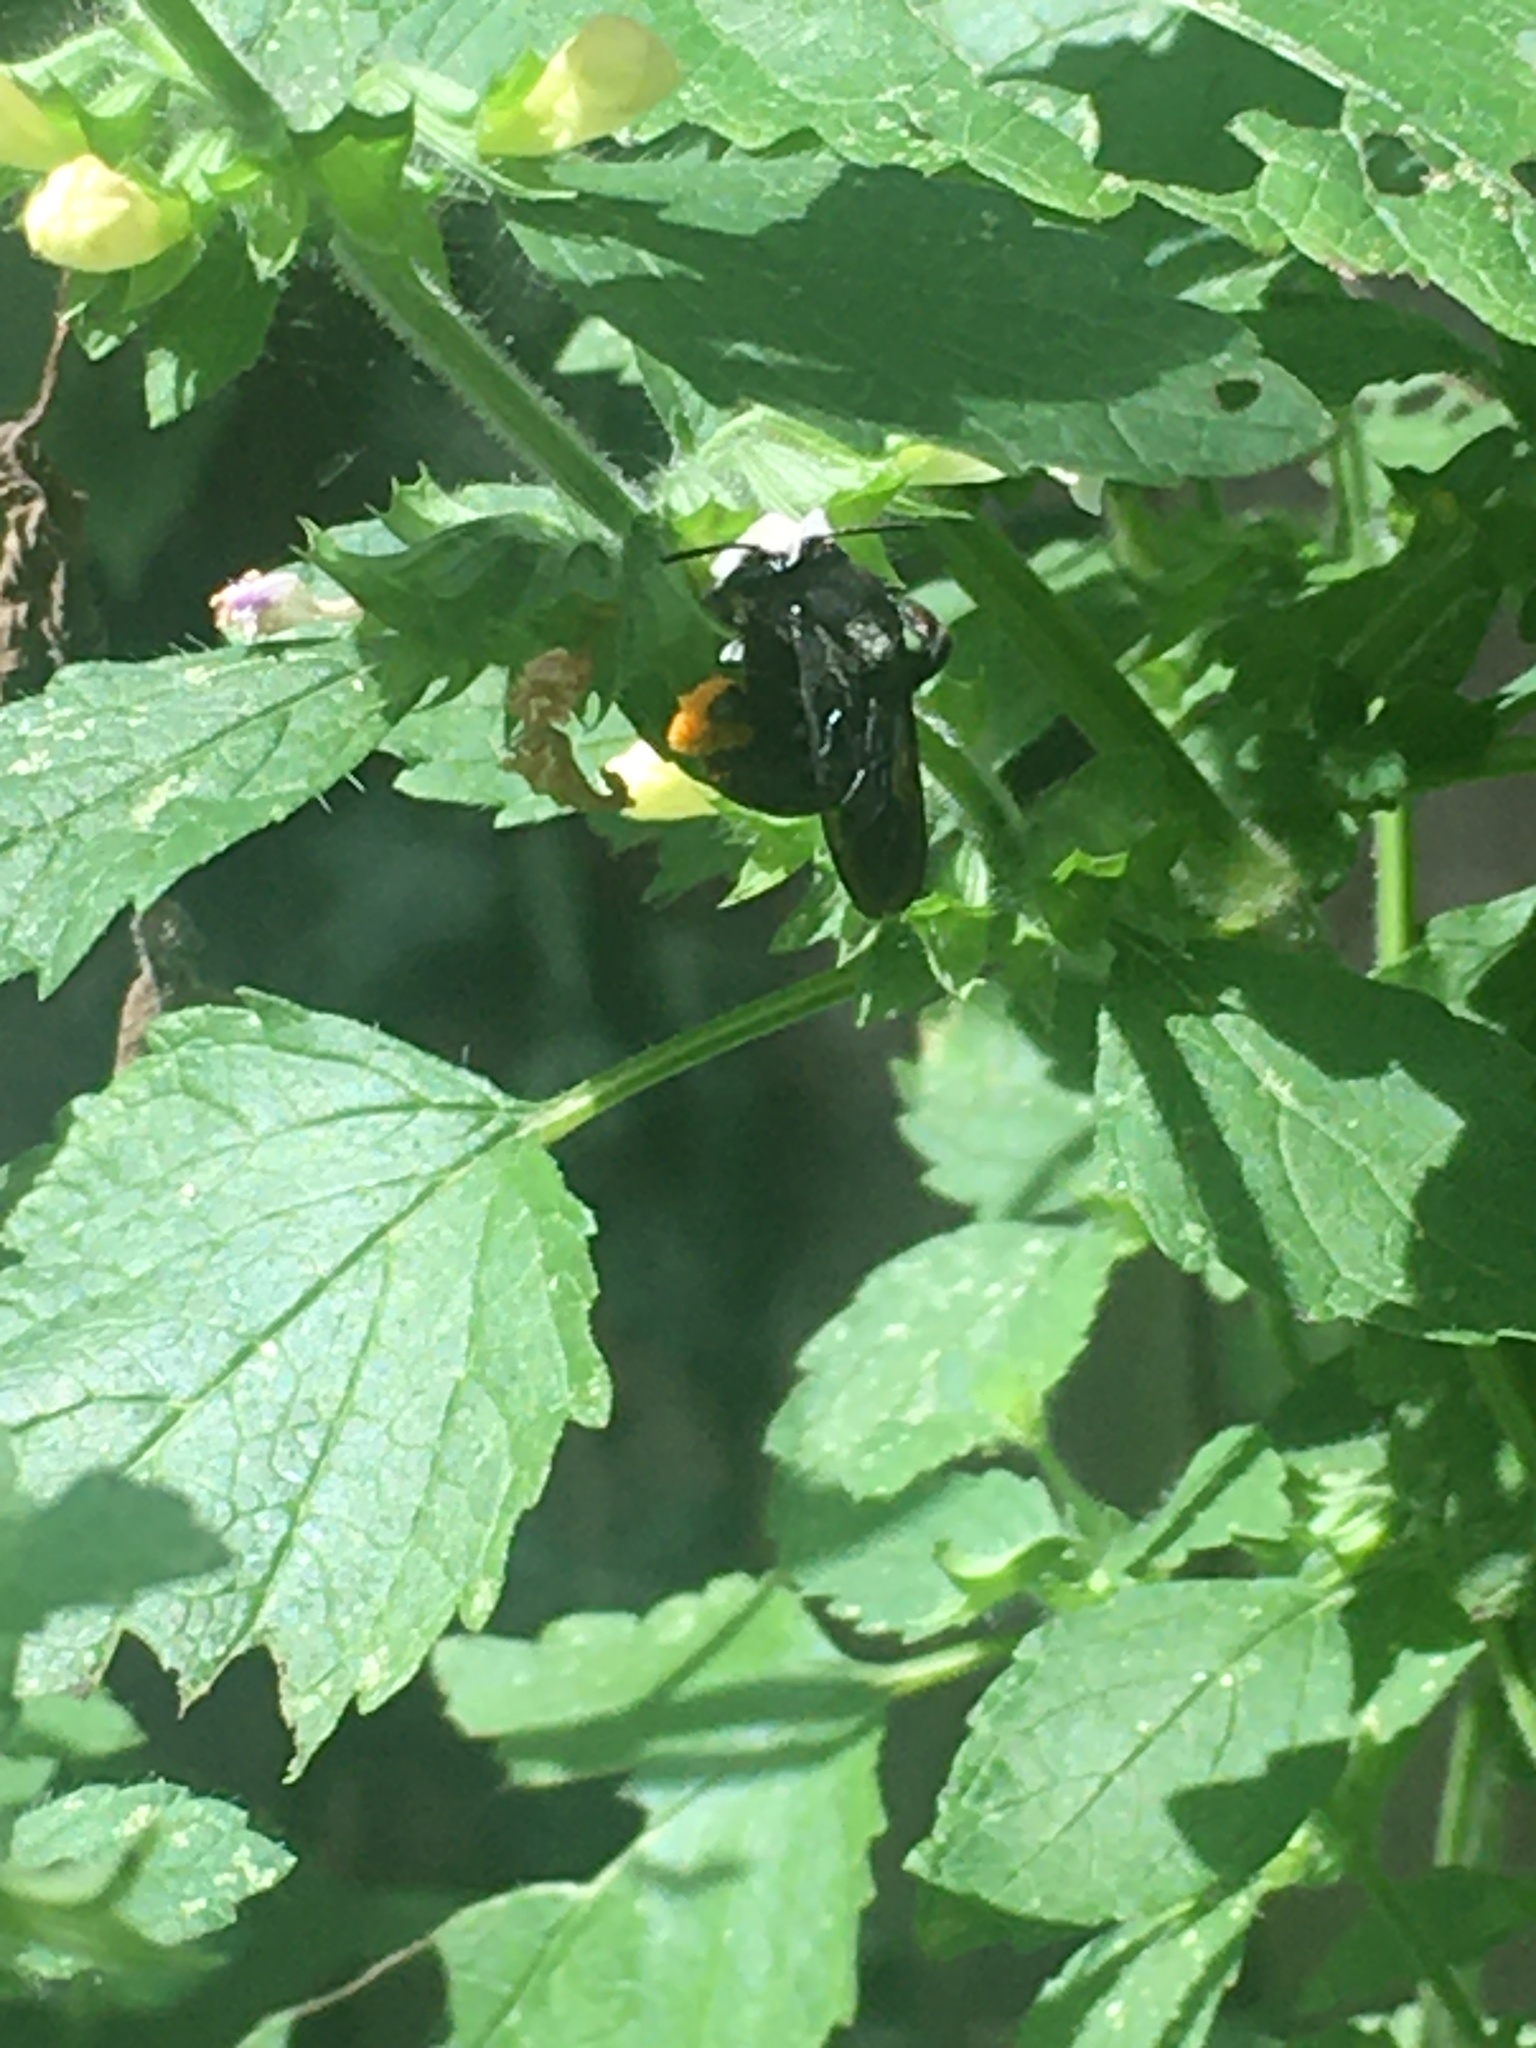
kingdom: Animalia
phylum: Arthropoda
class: Insecta
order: Hymenoptera
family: Apidae
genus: Melissodes
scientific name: Melissodes bimaculatus
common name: Two-spotted long-horned bee
